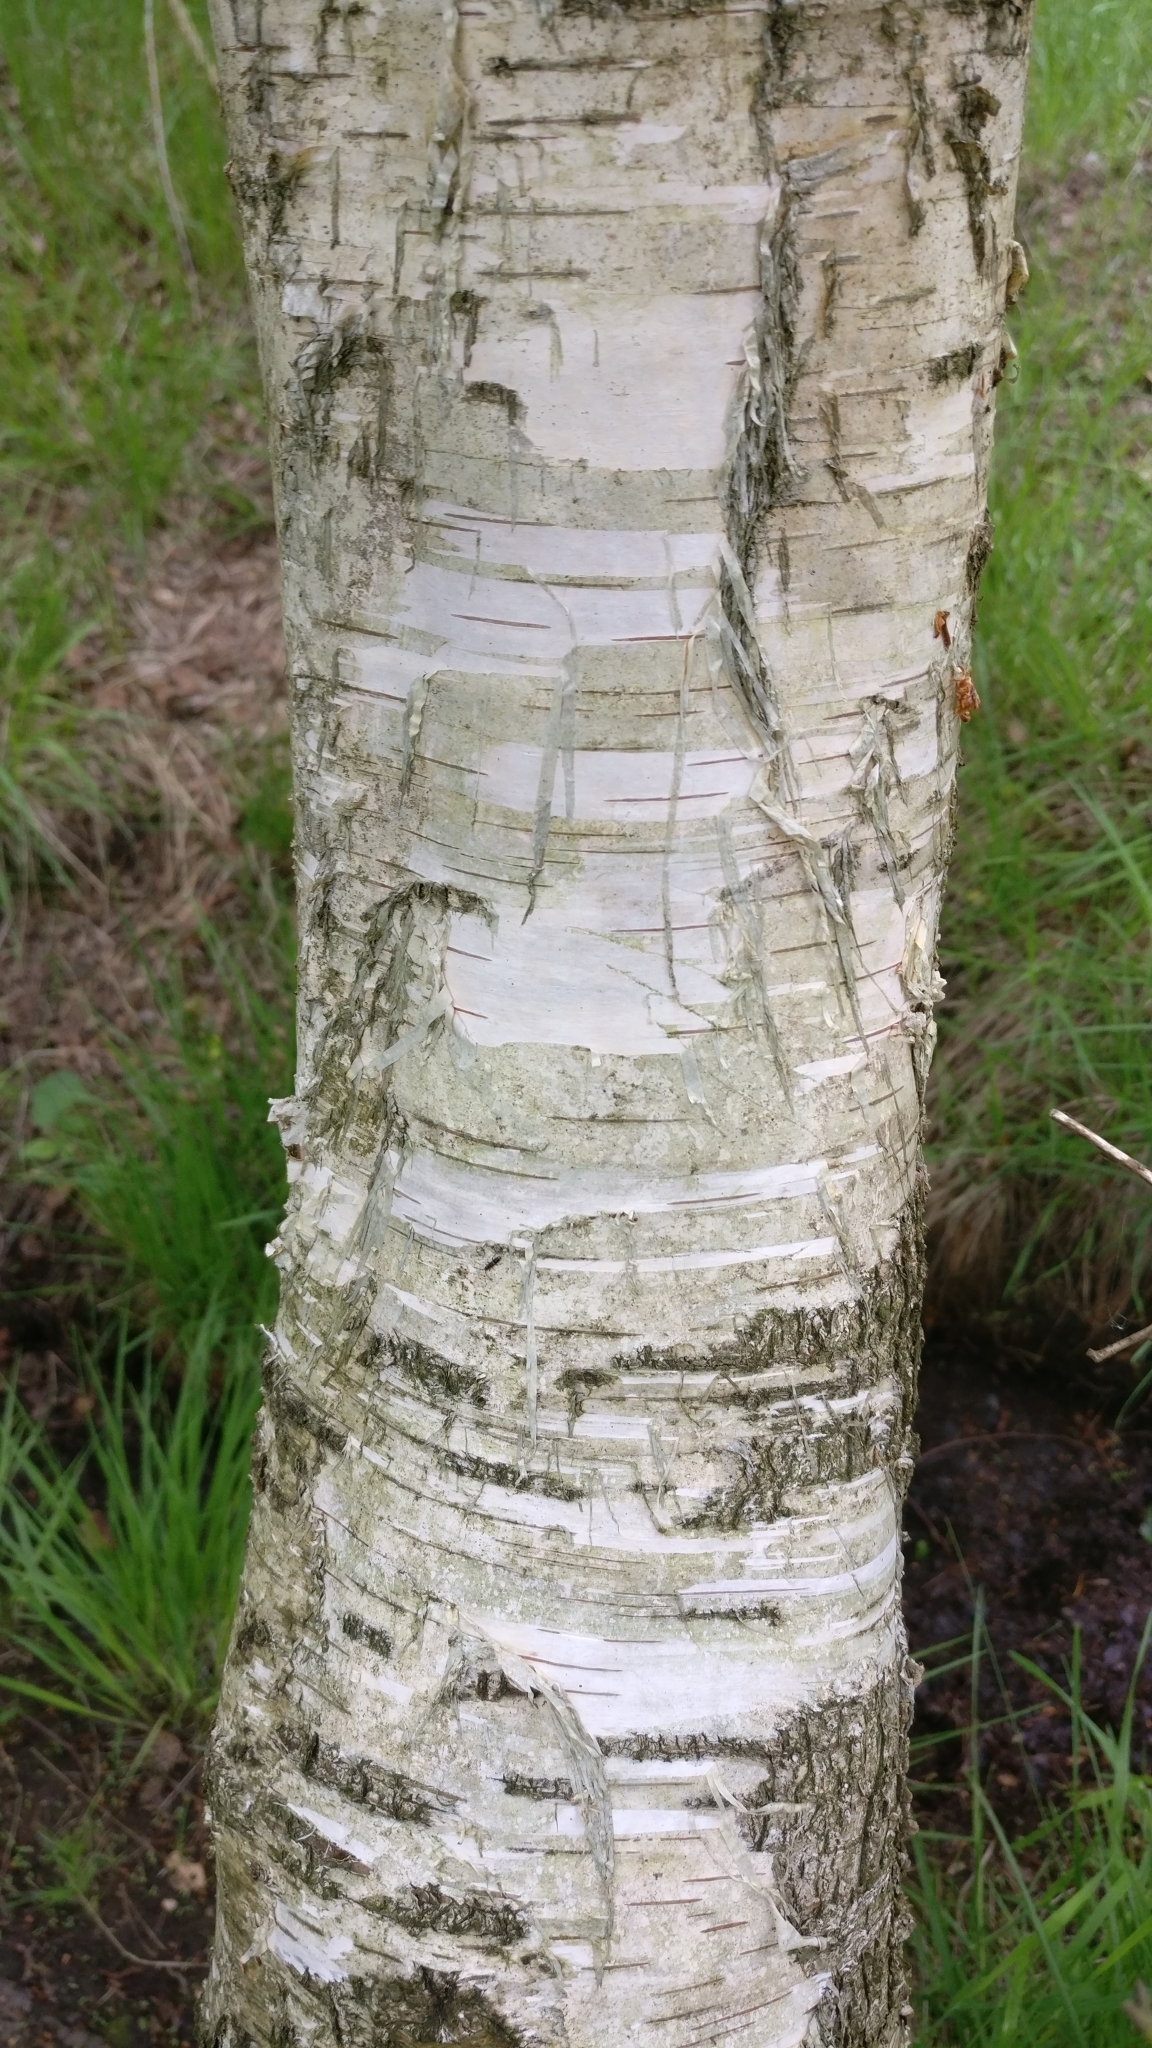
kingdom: Plantae
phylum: Tracheophyta
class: Magnoliopsida
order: Fagales
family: Betulaceae
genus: Betula
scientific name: Betula pendula
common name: Silver birch
